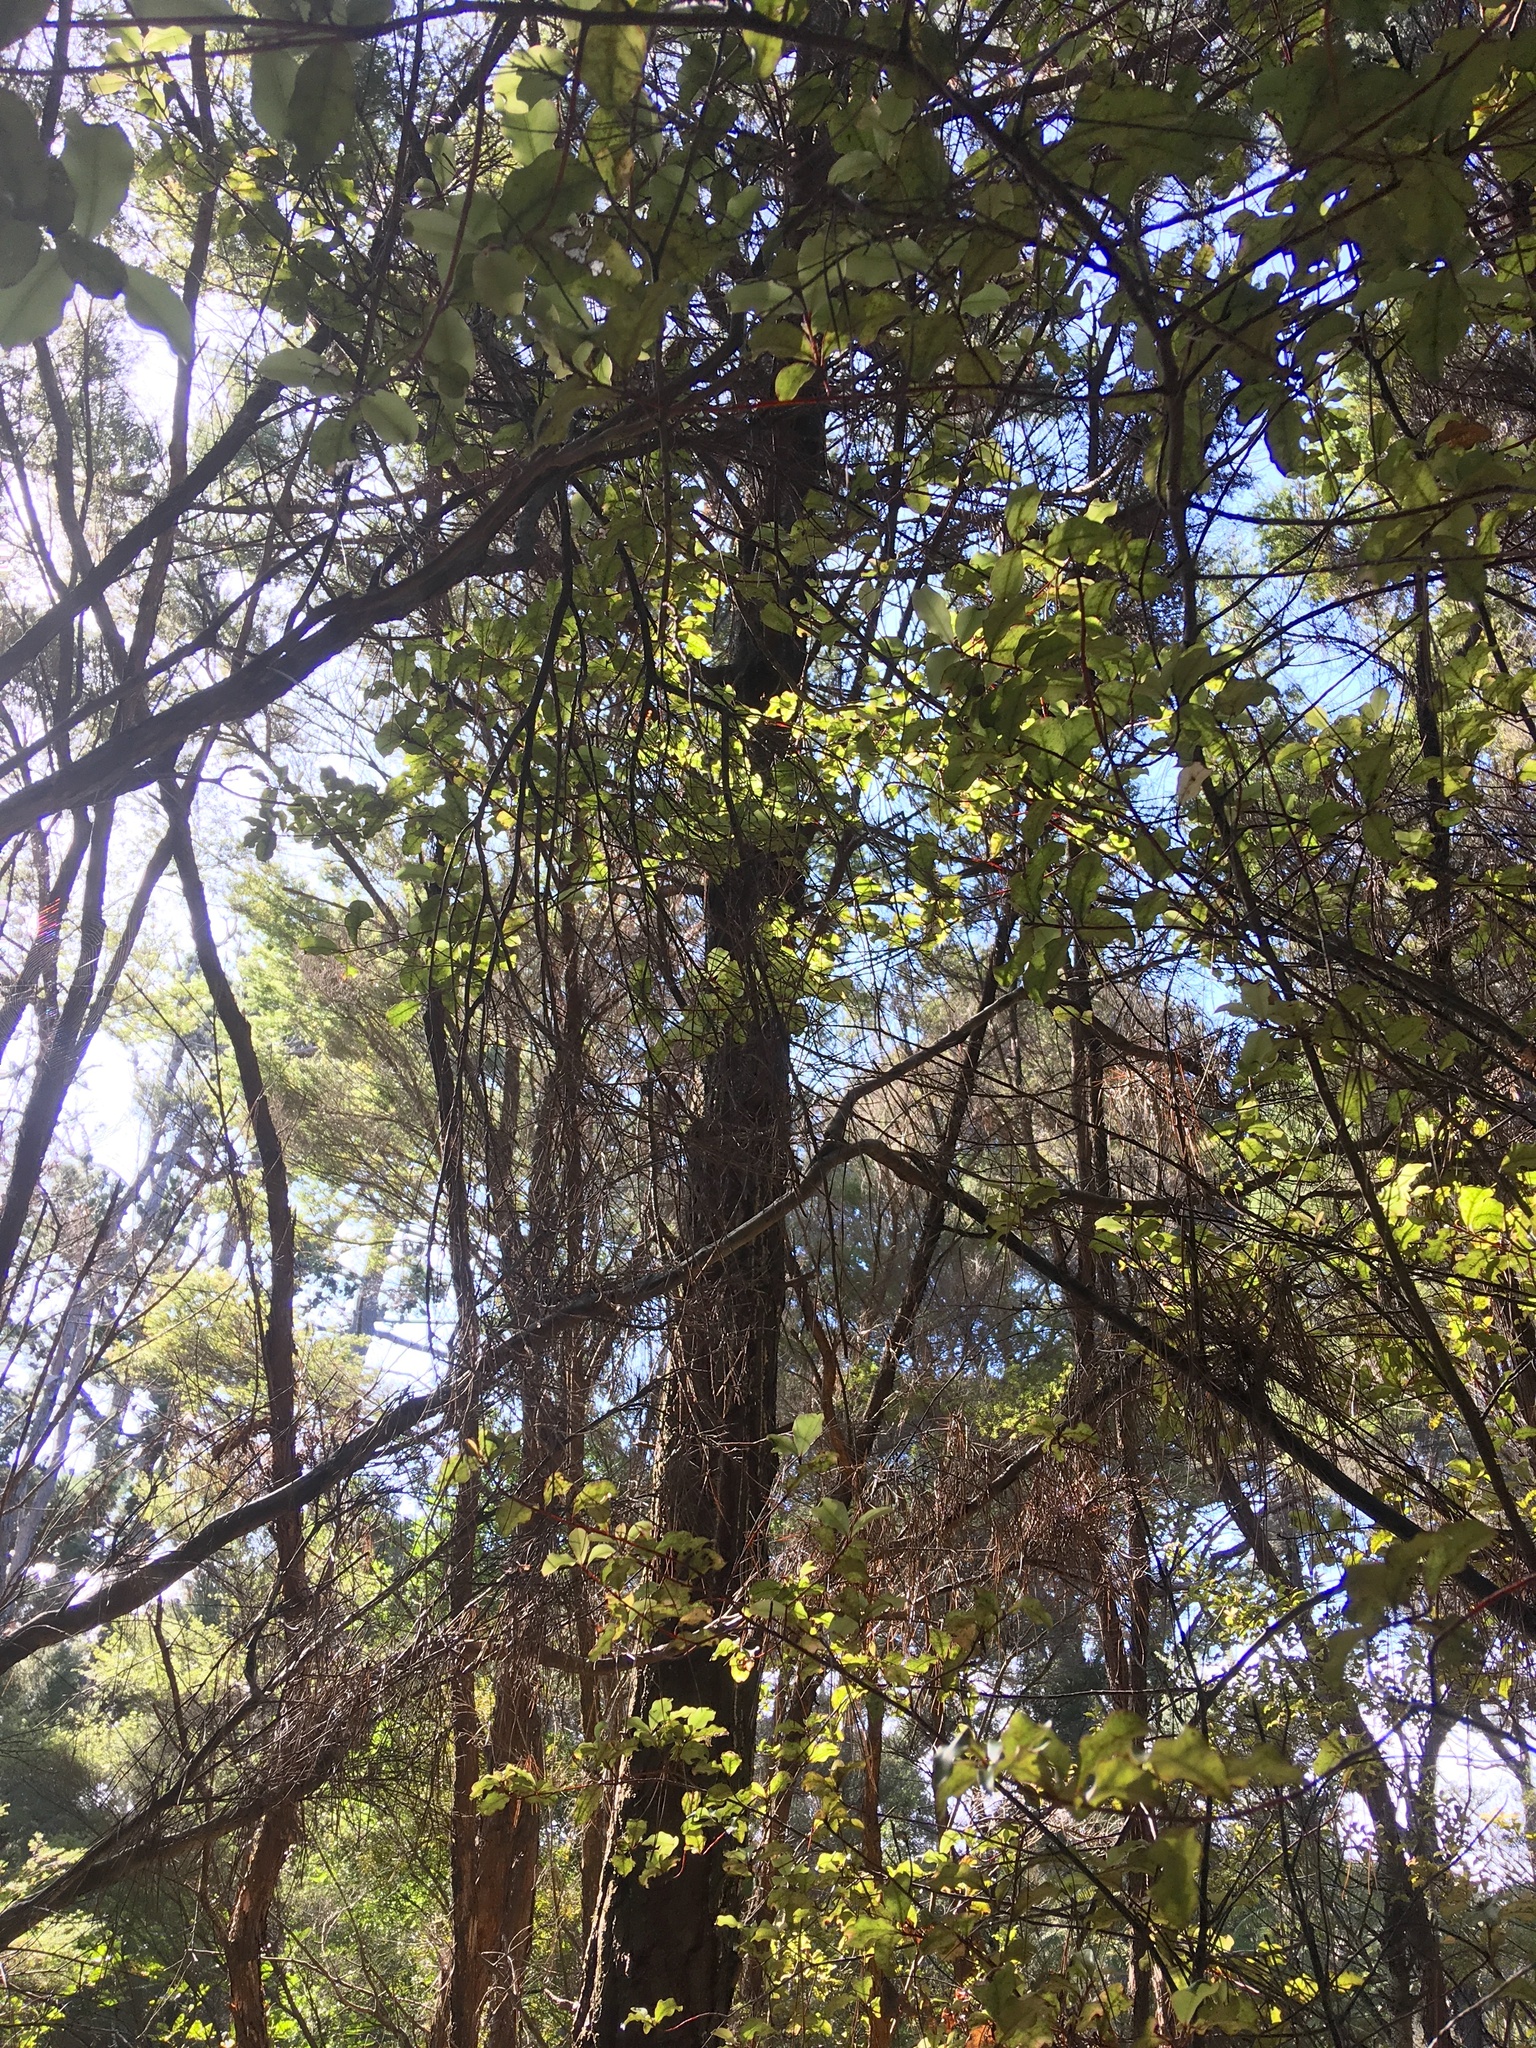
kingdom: Plantae
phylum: Tracheophyta
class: Magnoliopsida
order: Ericales
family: Primulaceae
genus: Myrsine
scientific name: Myrsine australis
